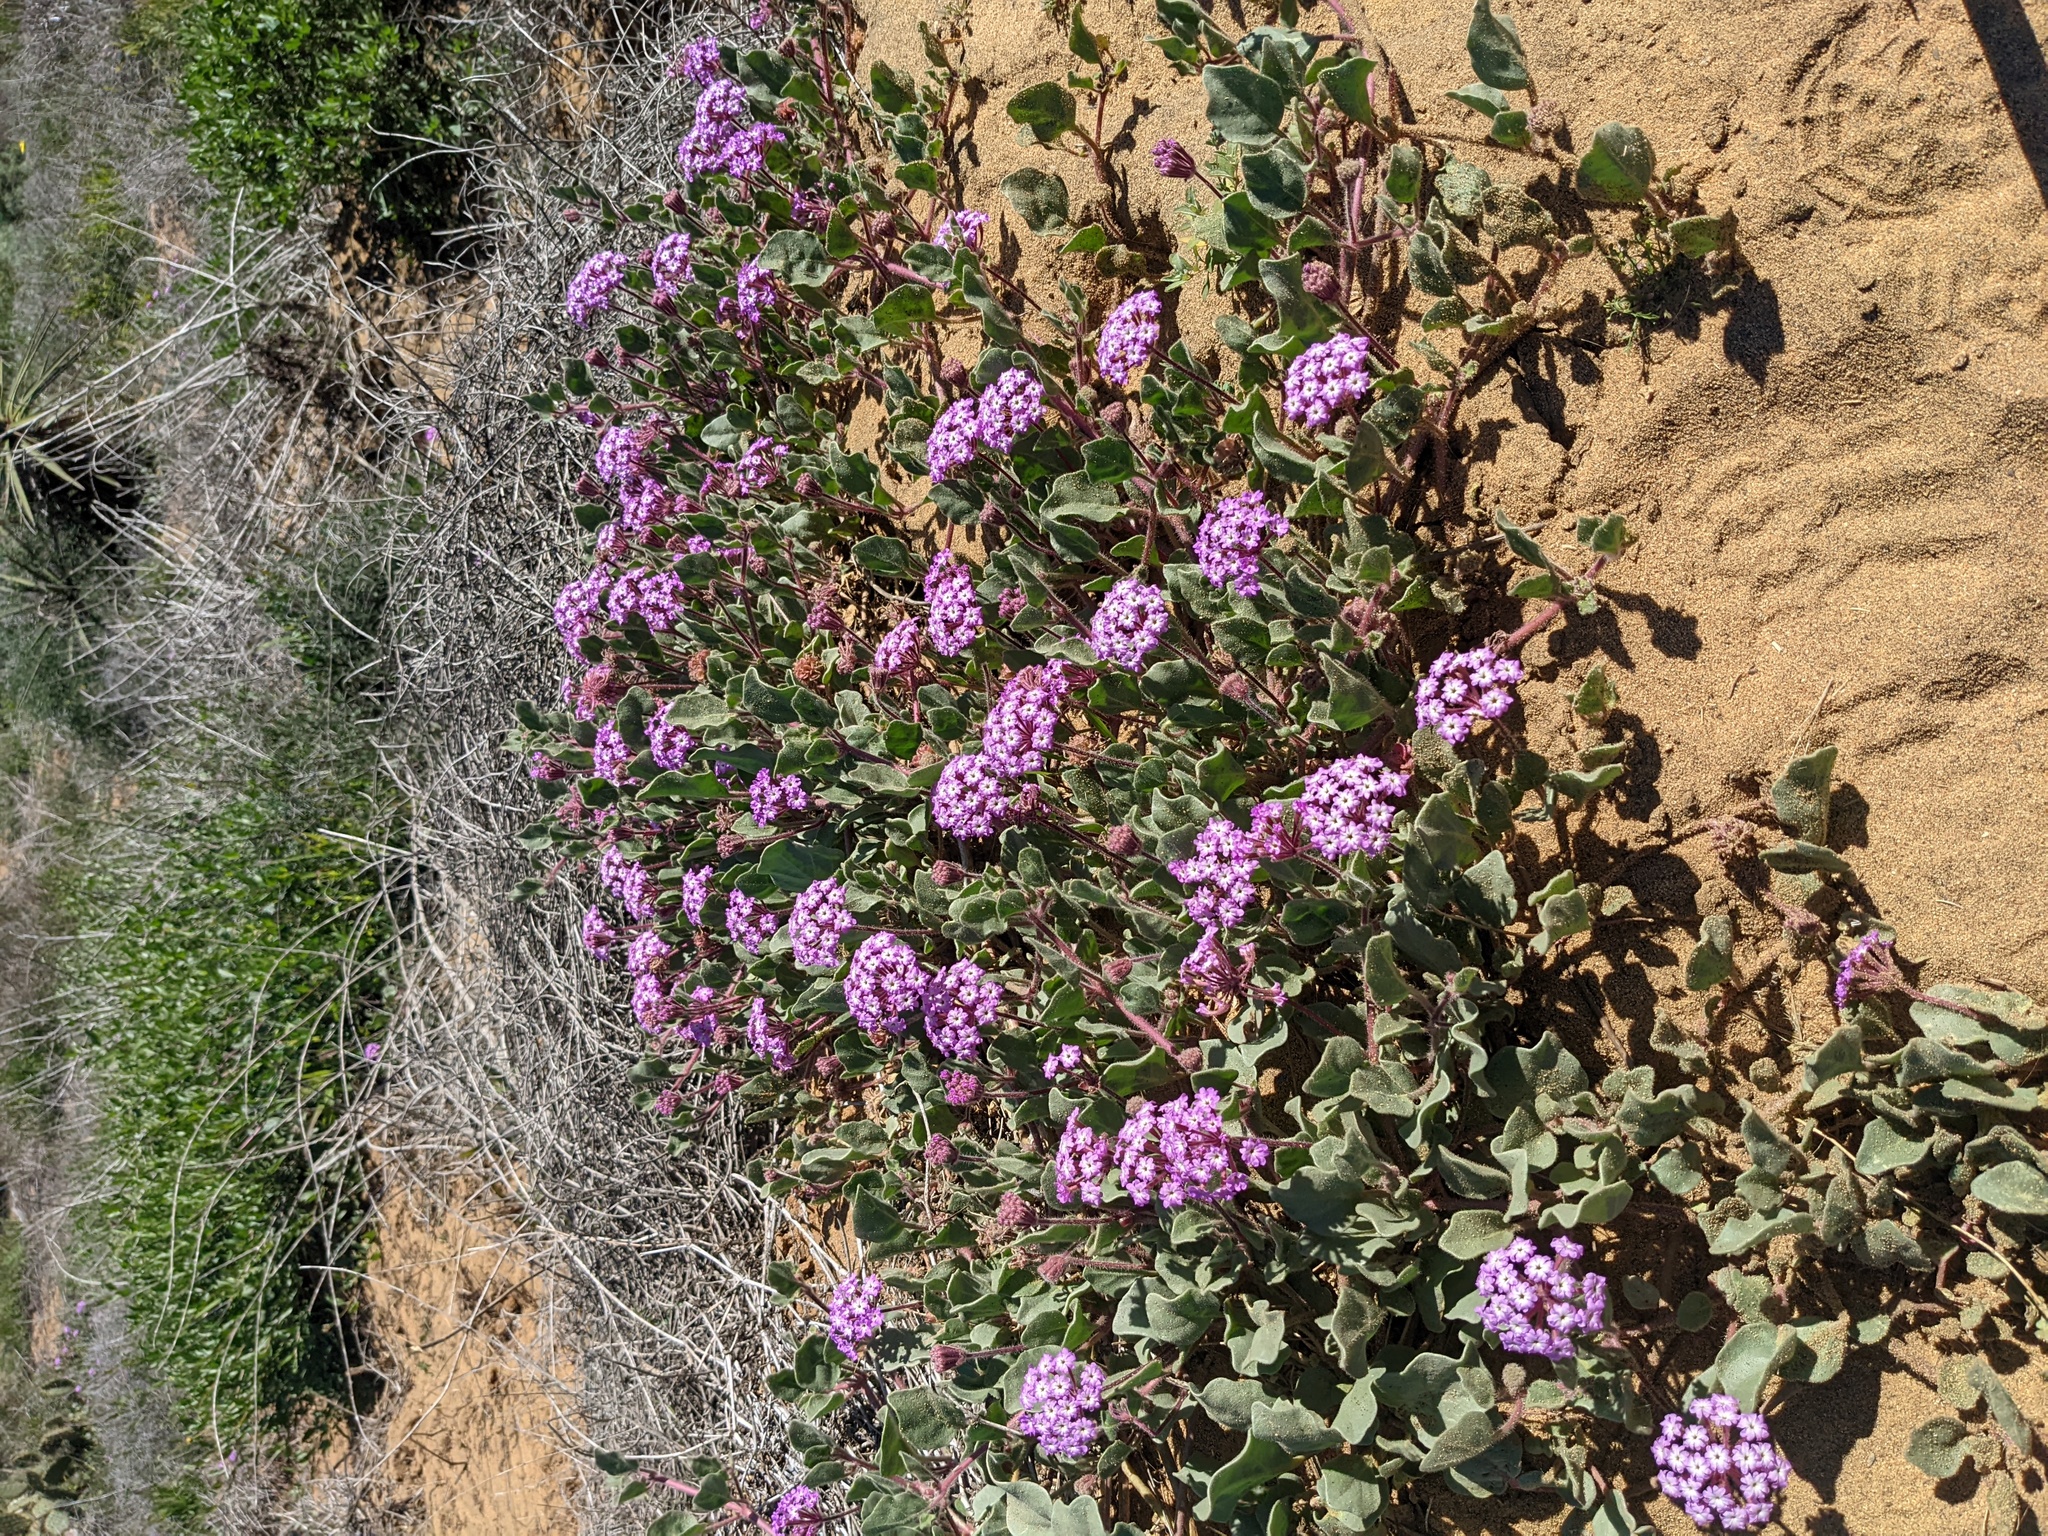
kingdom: Plantae
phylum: Tracheophyta
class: Magnoliopsida
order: Caryophyllales
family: Nyctaginaceae
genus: Abronia
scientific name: Abronia umbellata
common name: Sand-verbena
